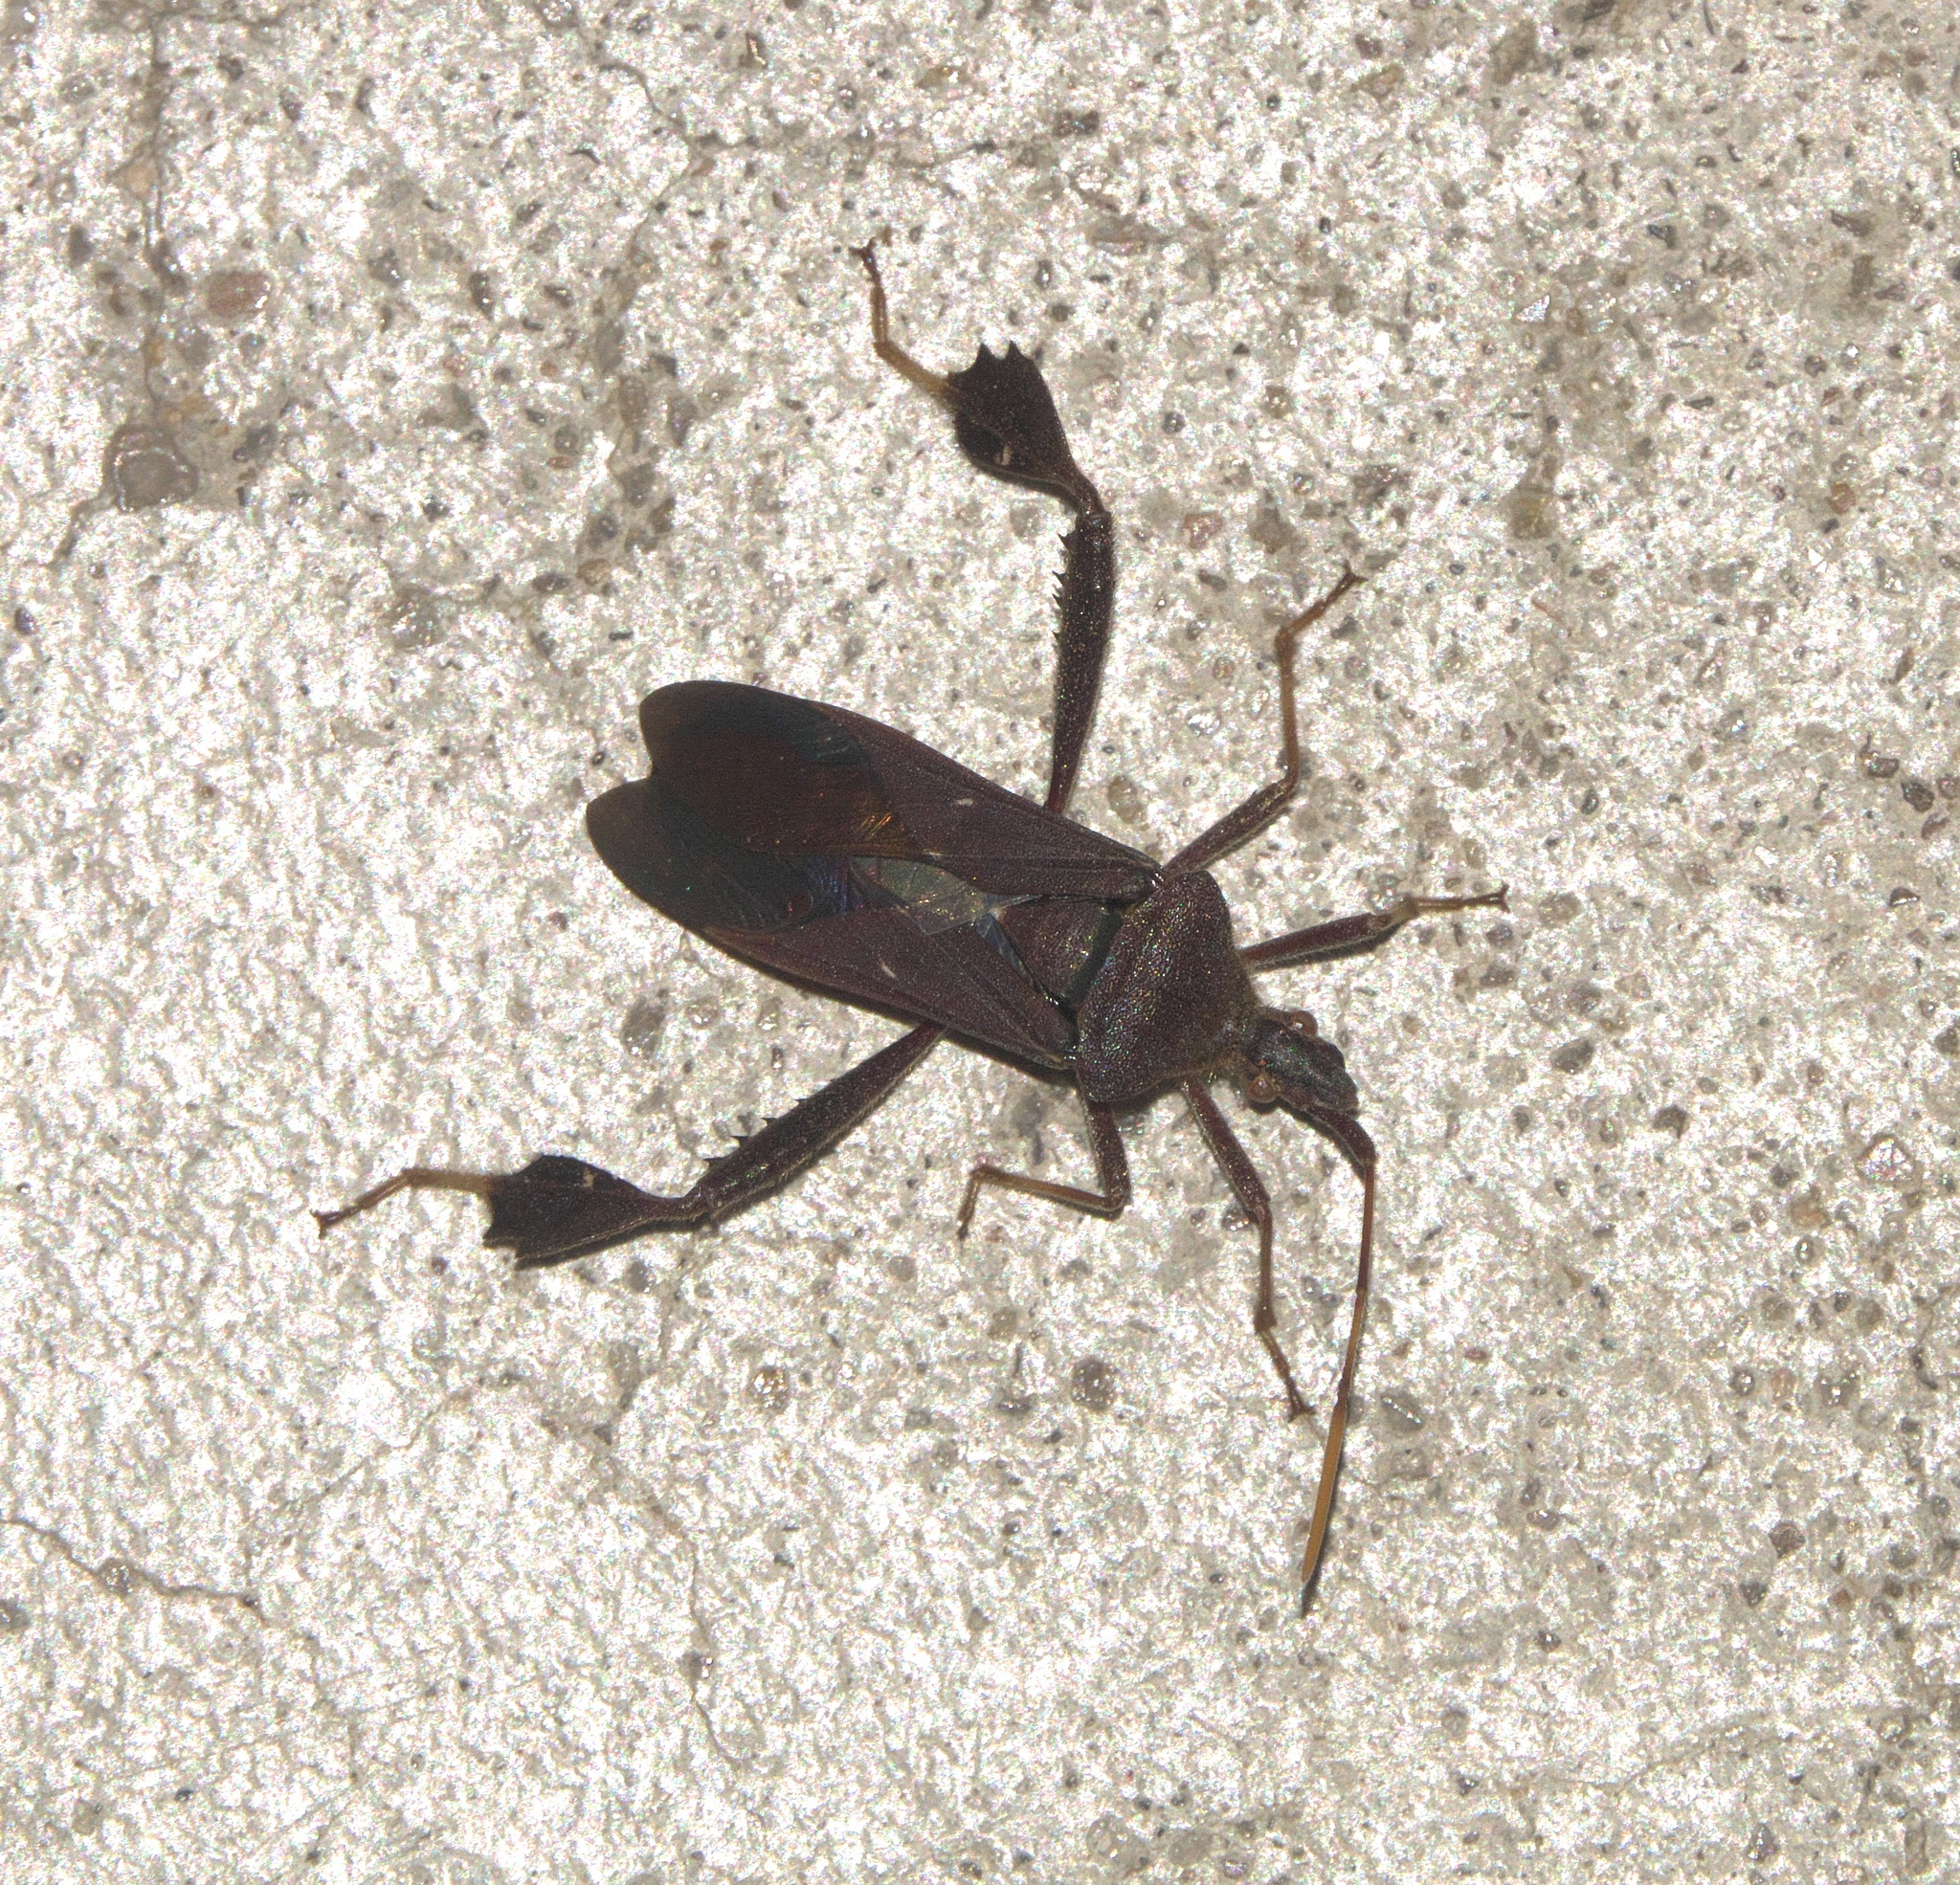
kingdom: Animalia
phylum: Arthropoda
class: Insecta
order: Hemiptera
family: Coreidae
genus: Leptoglossus
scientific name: Leptoglossus oppositus
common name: Northern leaf-footed bug
